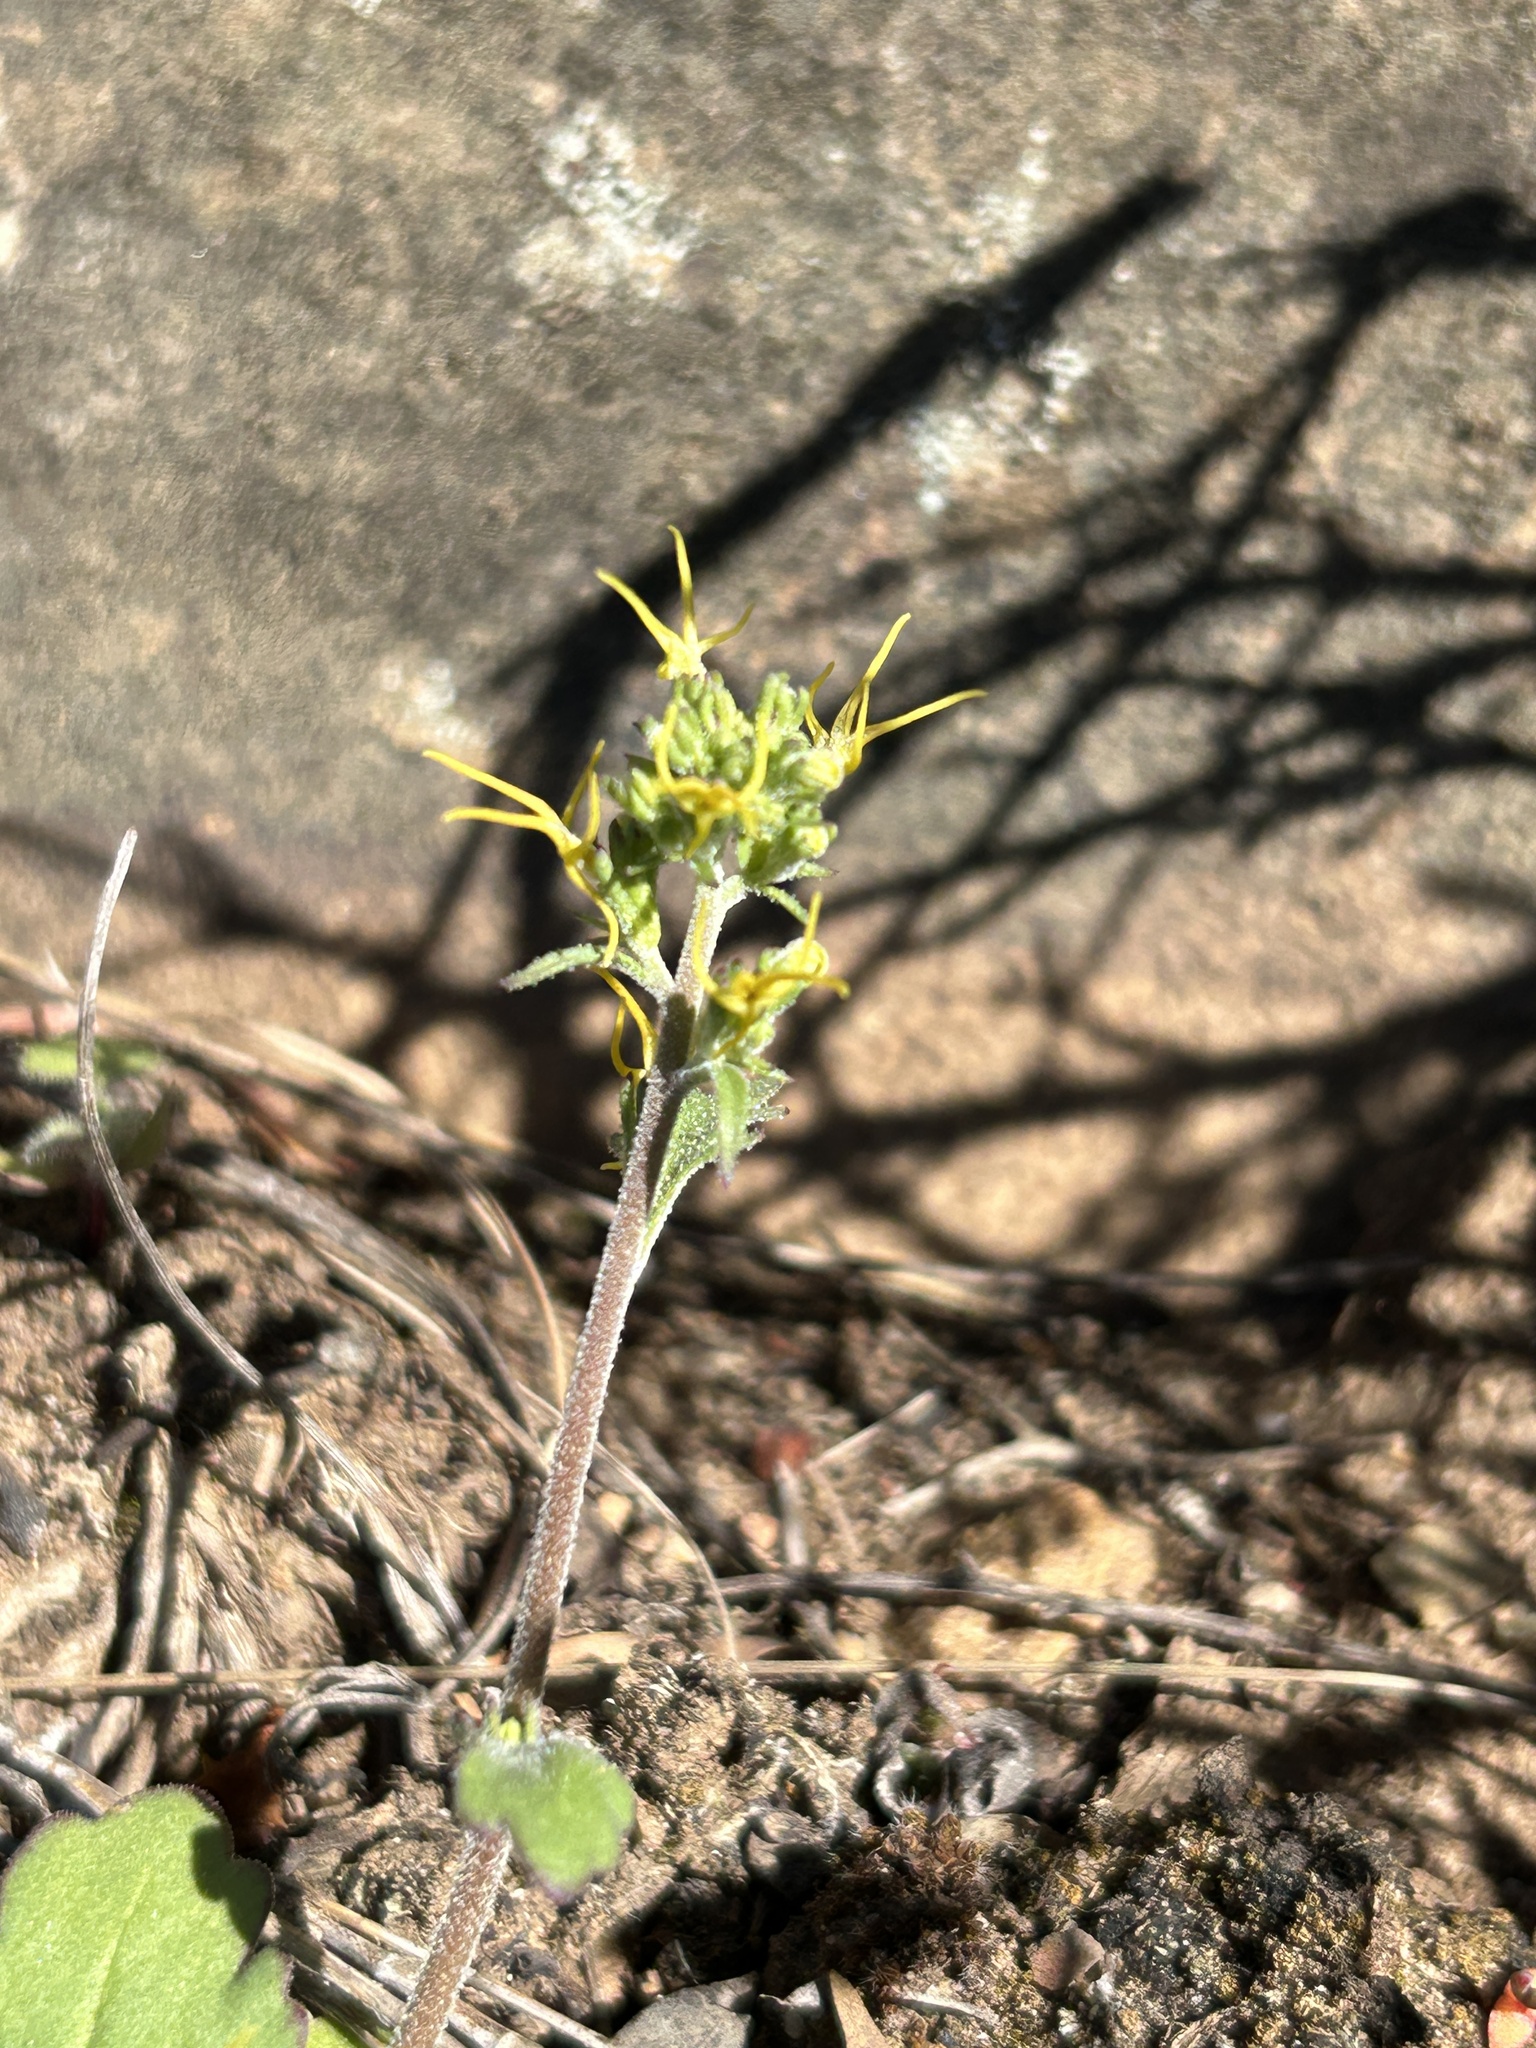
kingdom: Plantae
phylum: Tracheophyta
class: Magnoliopsida
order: Lamiales
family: Scrophulariaceae
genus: Manulea
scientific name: Manulea cheiranthus
